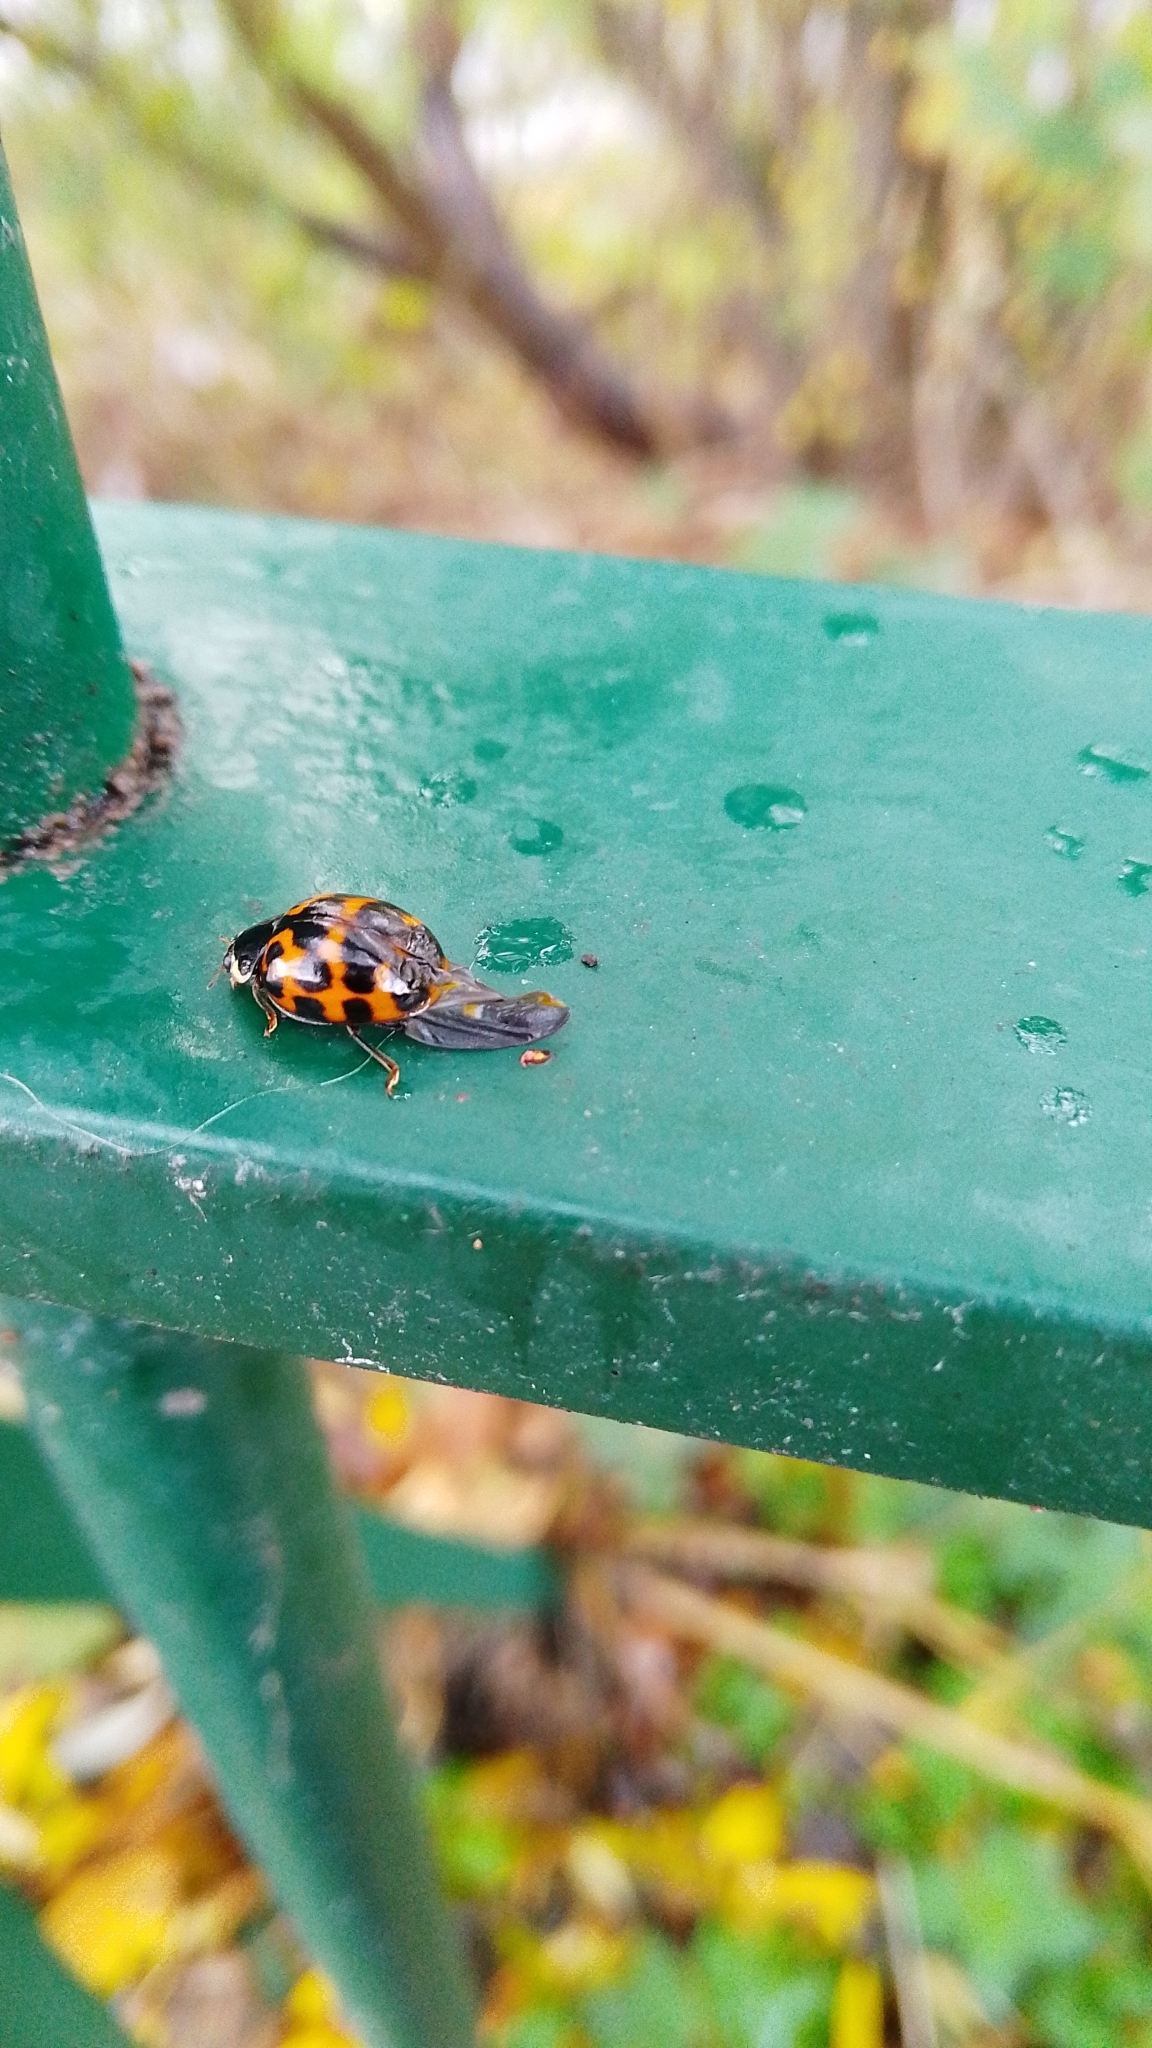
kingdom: Animalia
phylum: Arthropoda
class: Insecta
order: Coleoptera
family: Coccinellidae
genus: Harmonia
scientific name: Harmonia axyridis
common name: Harlequin ladybird
